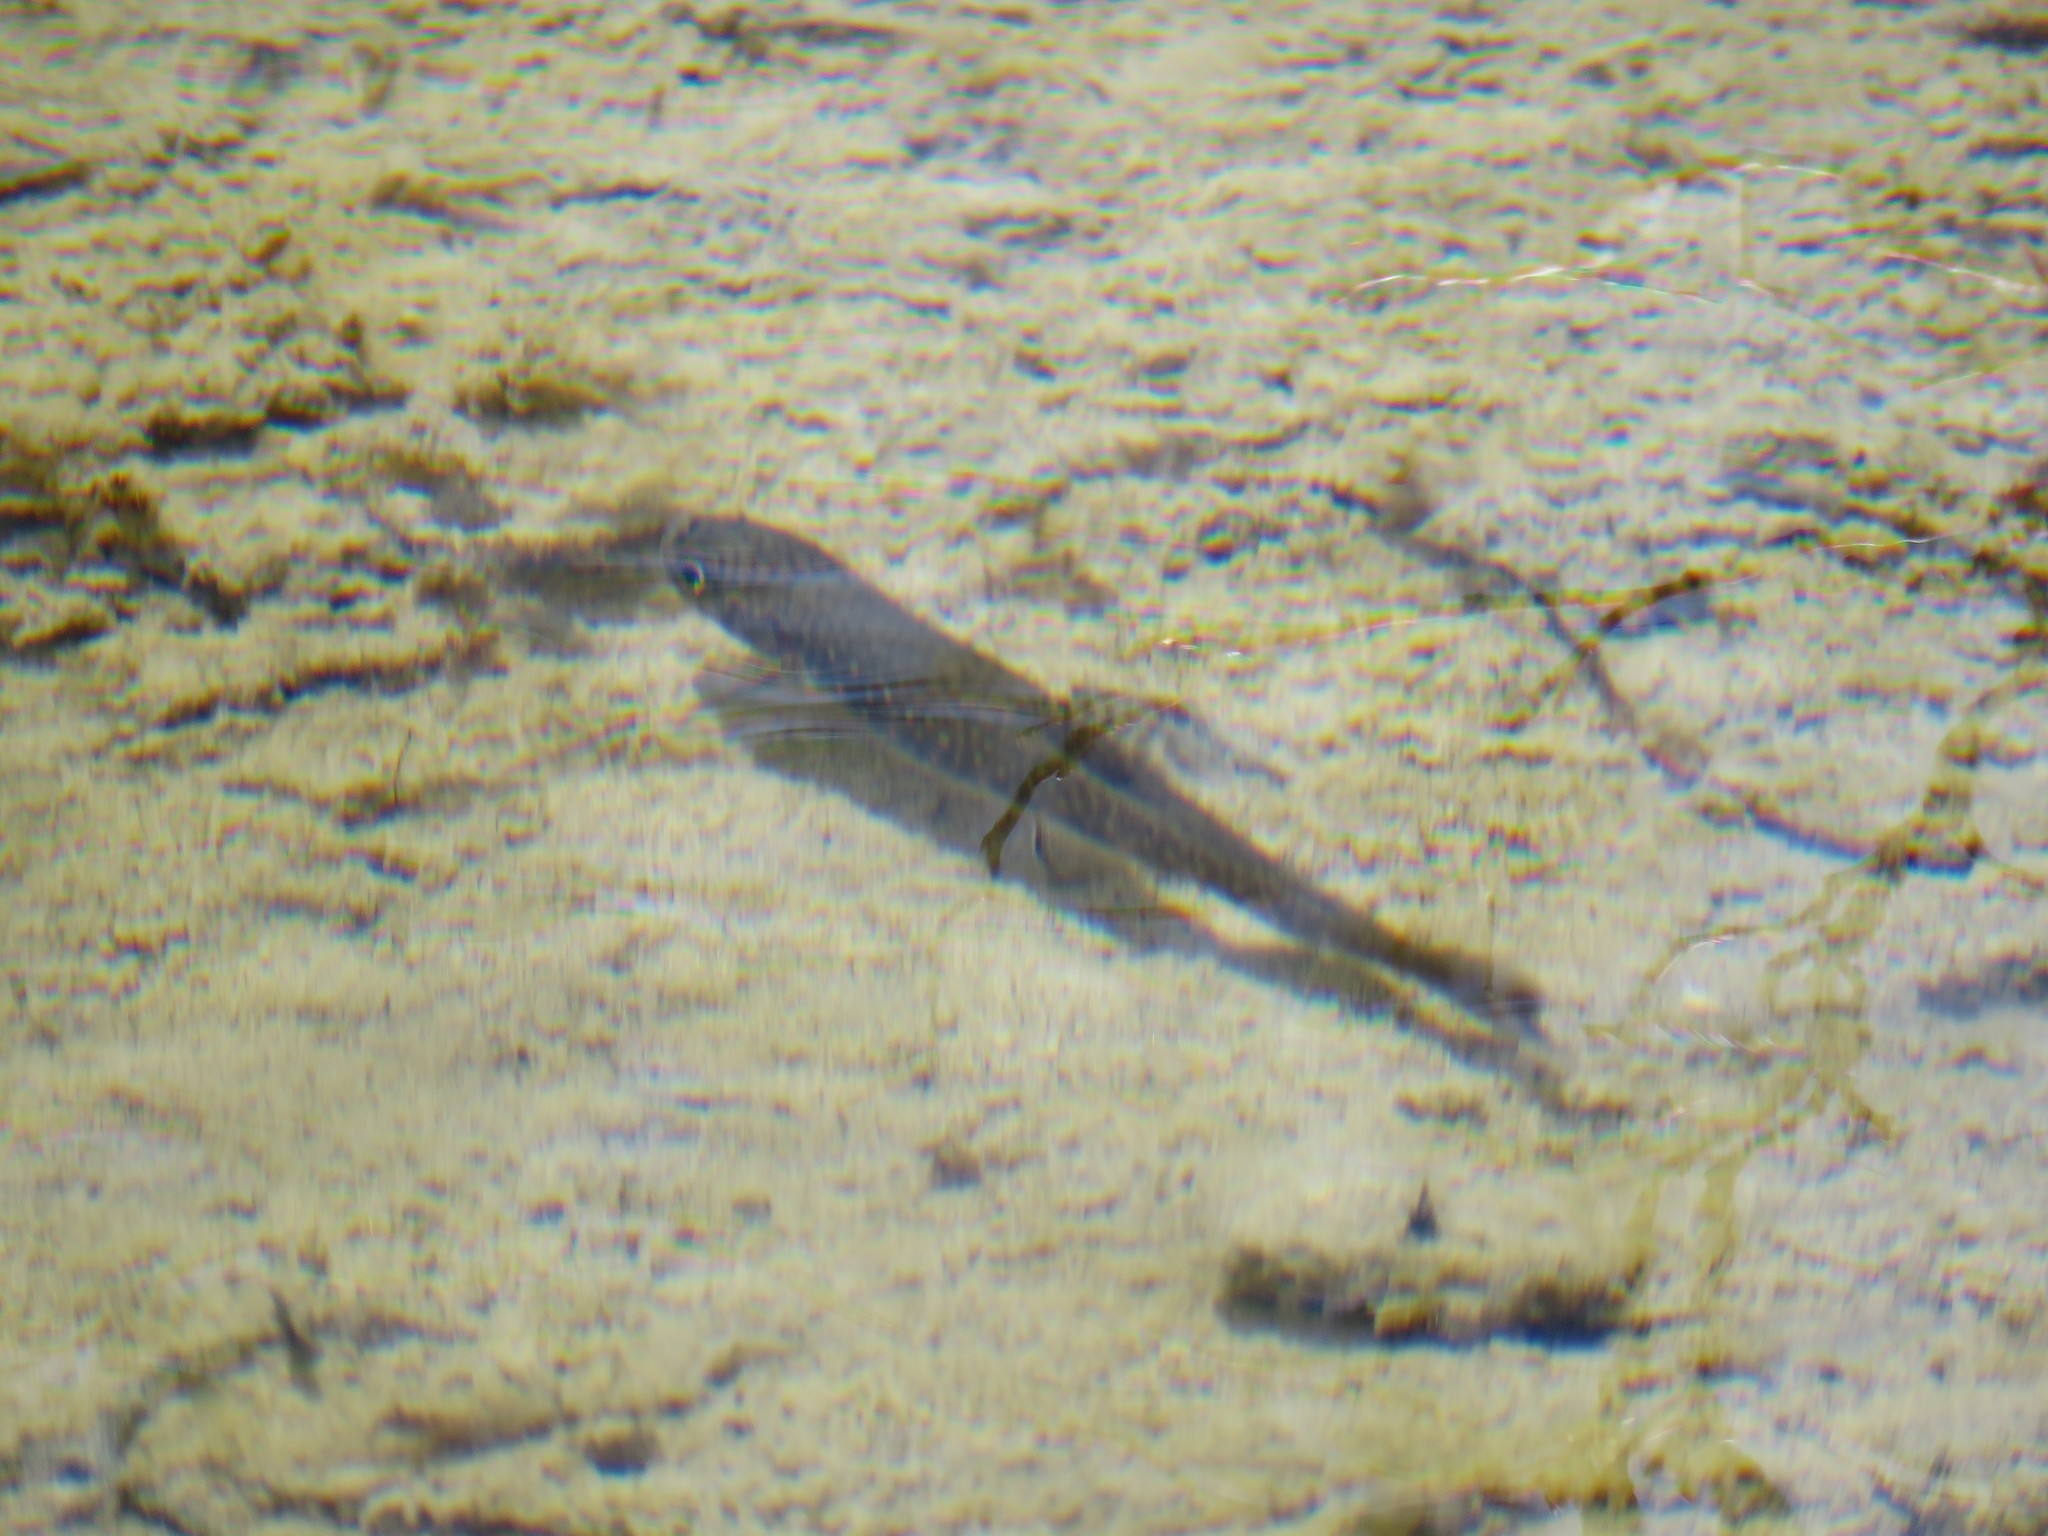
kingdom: Animalia
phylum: Chordata
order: Salmoniformes
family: Salmonidae
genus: Salvelinus
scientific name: Salvelinus fontinalis
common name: Brook trout
